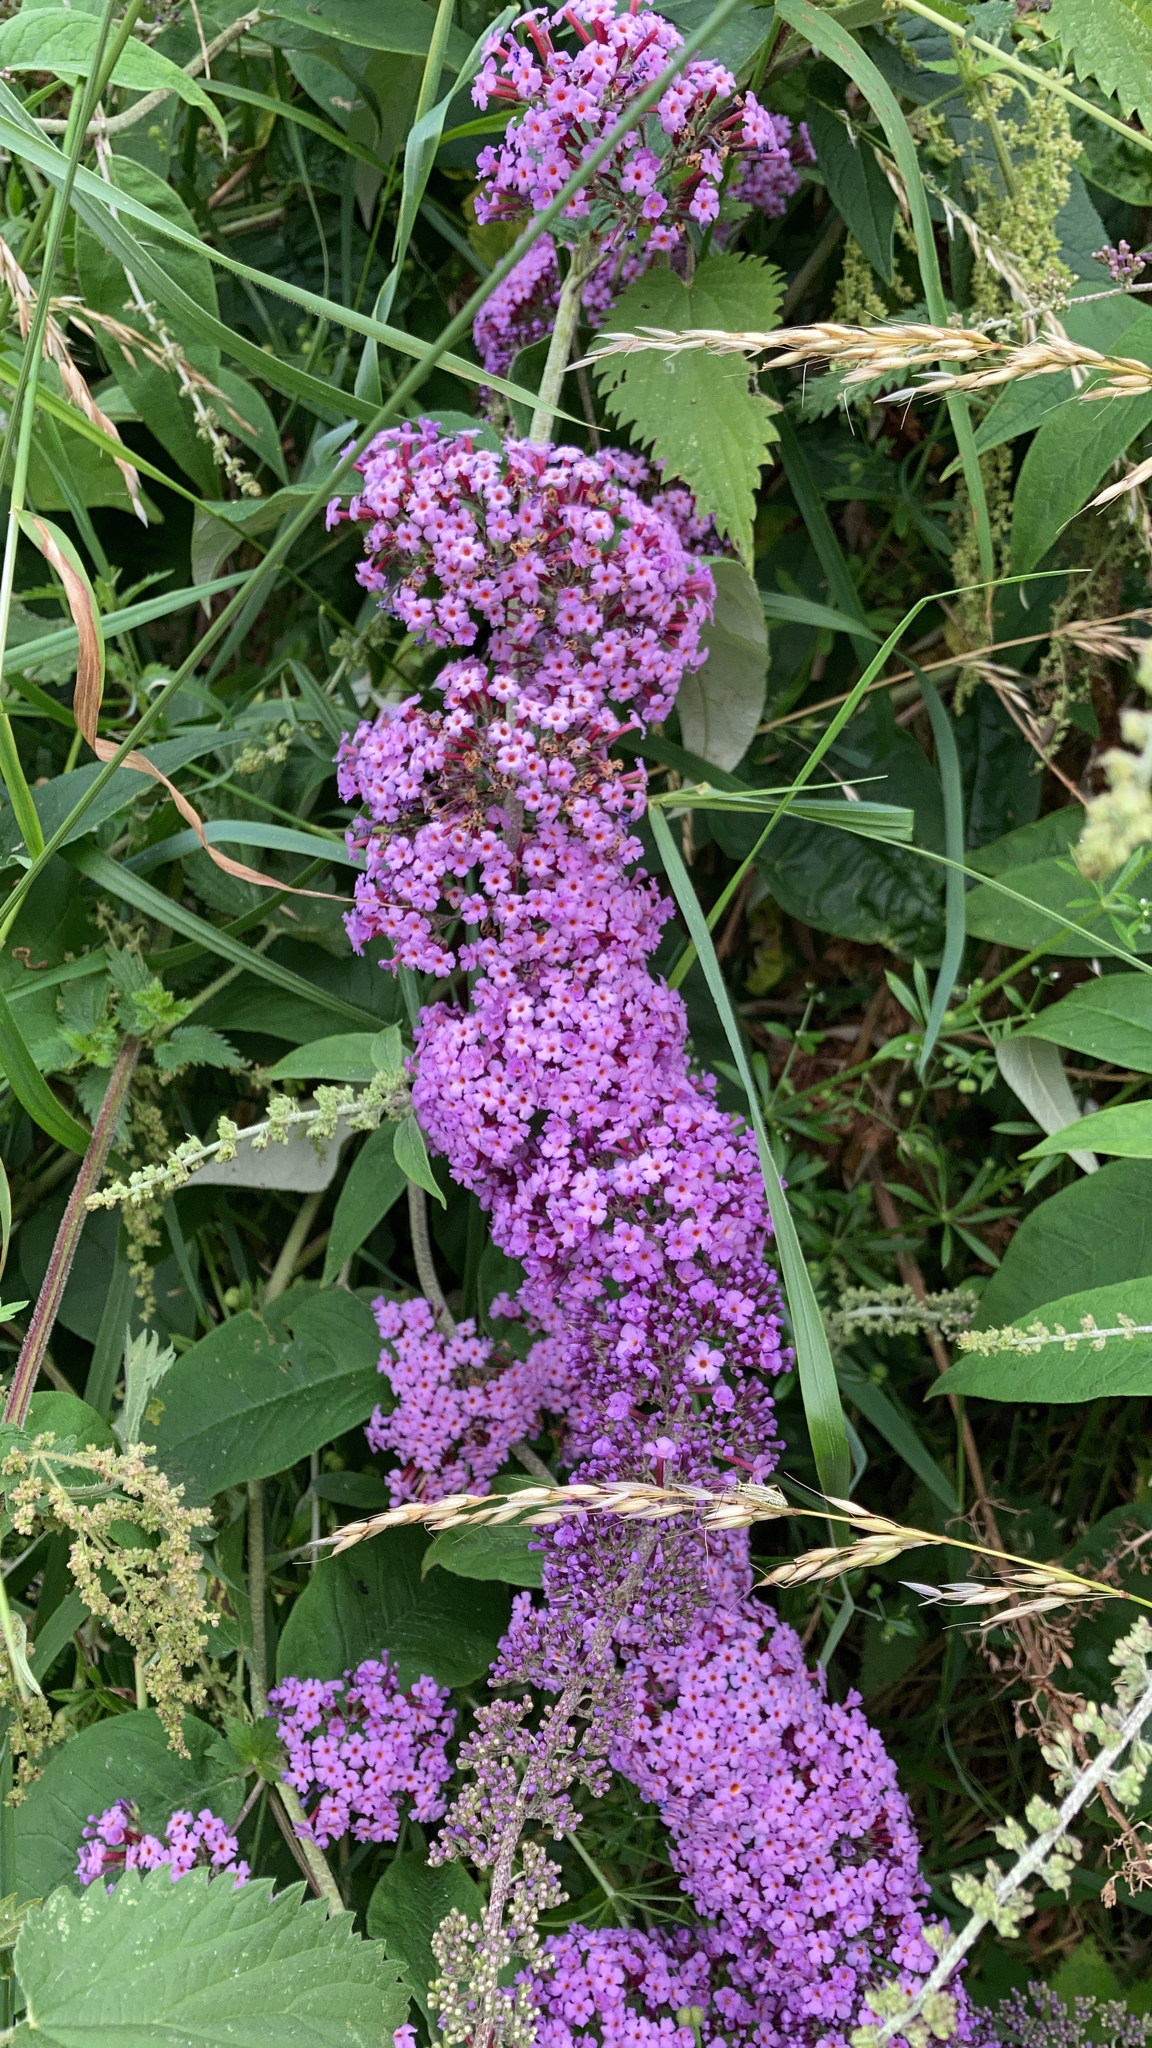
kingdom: Plantae
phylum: Tracheophyta
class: Magnoliopsida
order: Lamiales
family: Scrophulariaceae
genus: Buddleja
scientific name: Buddleja davidii
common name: Butterfly-bush
